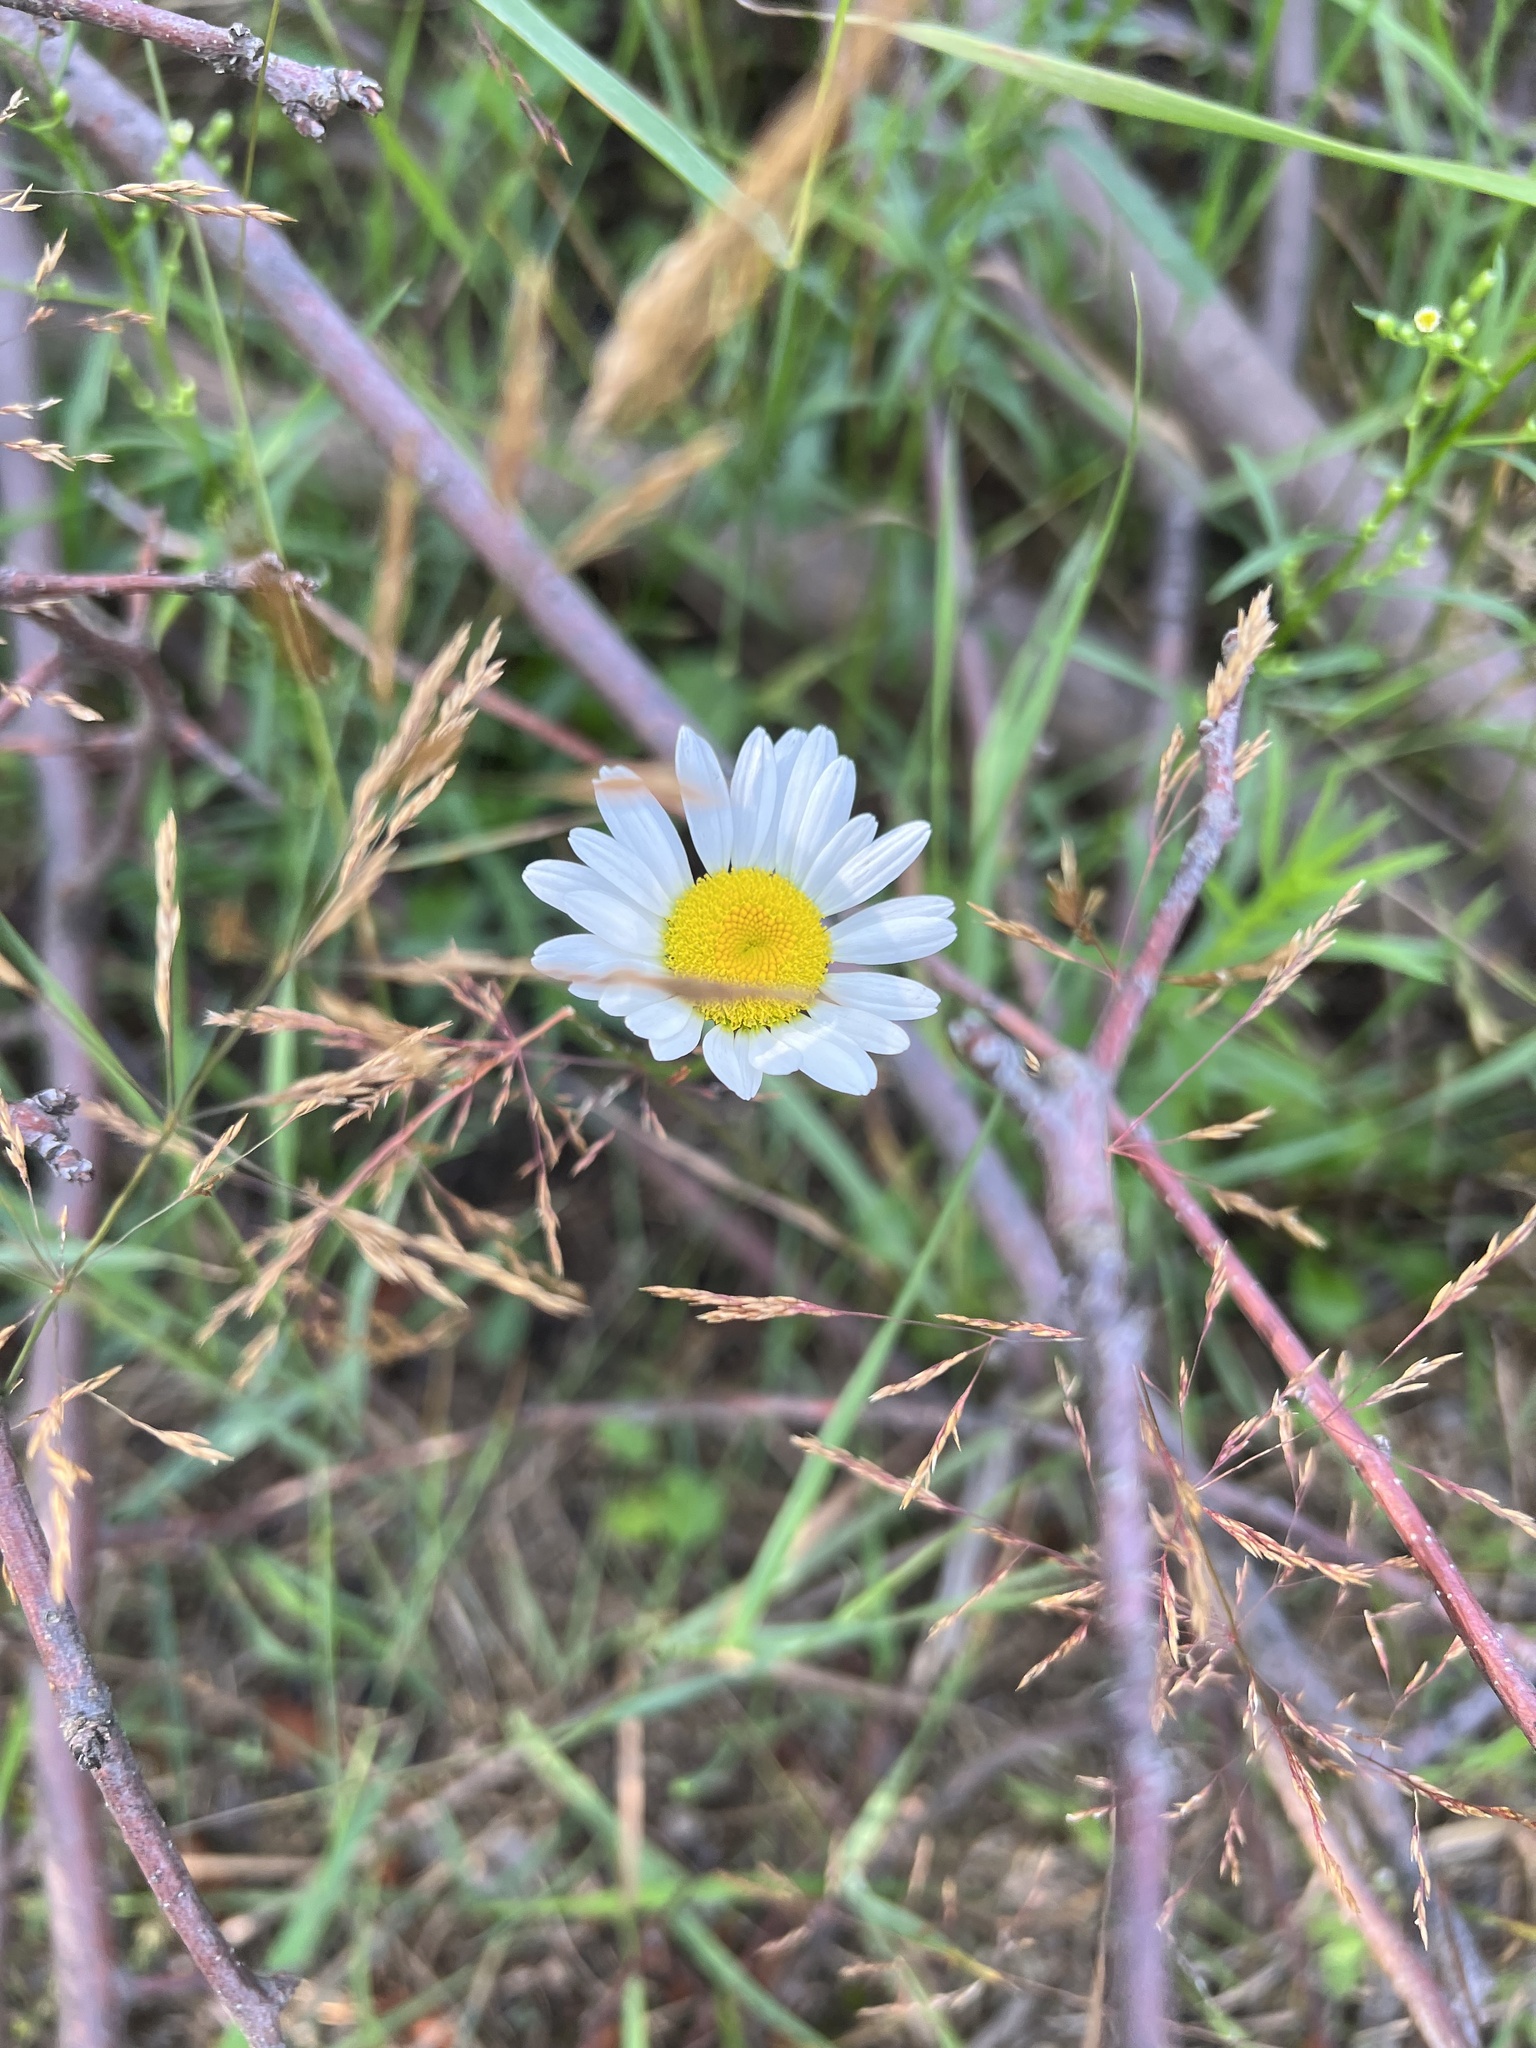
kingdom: Plantae
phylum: Tracheophyta
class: Magnoliopsida
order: Asterales
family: Asteraceae
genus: Leucanthemum
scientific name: Leucanthemum vulgare
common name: Oxeye daisy
